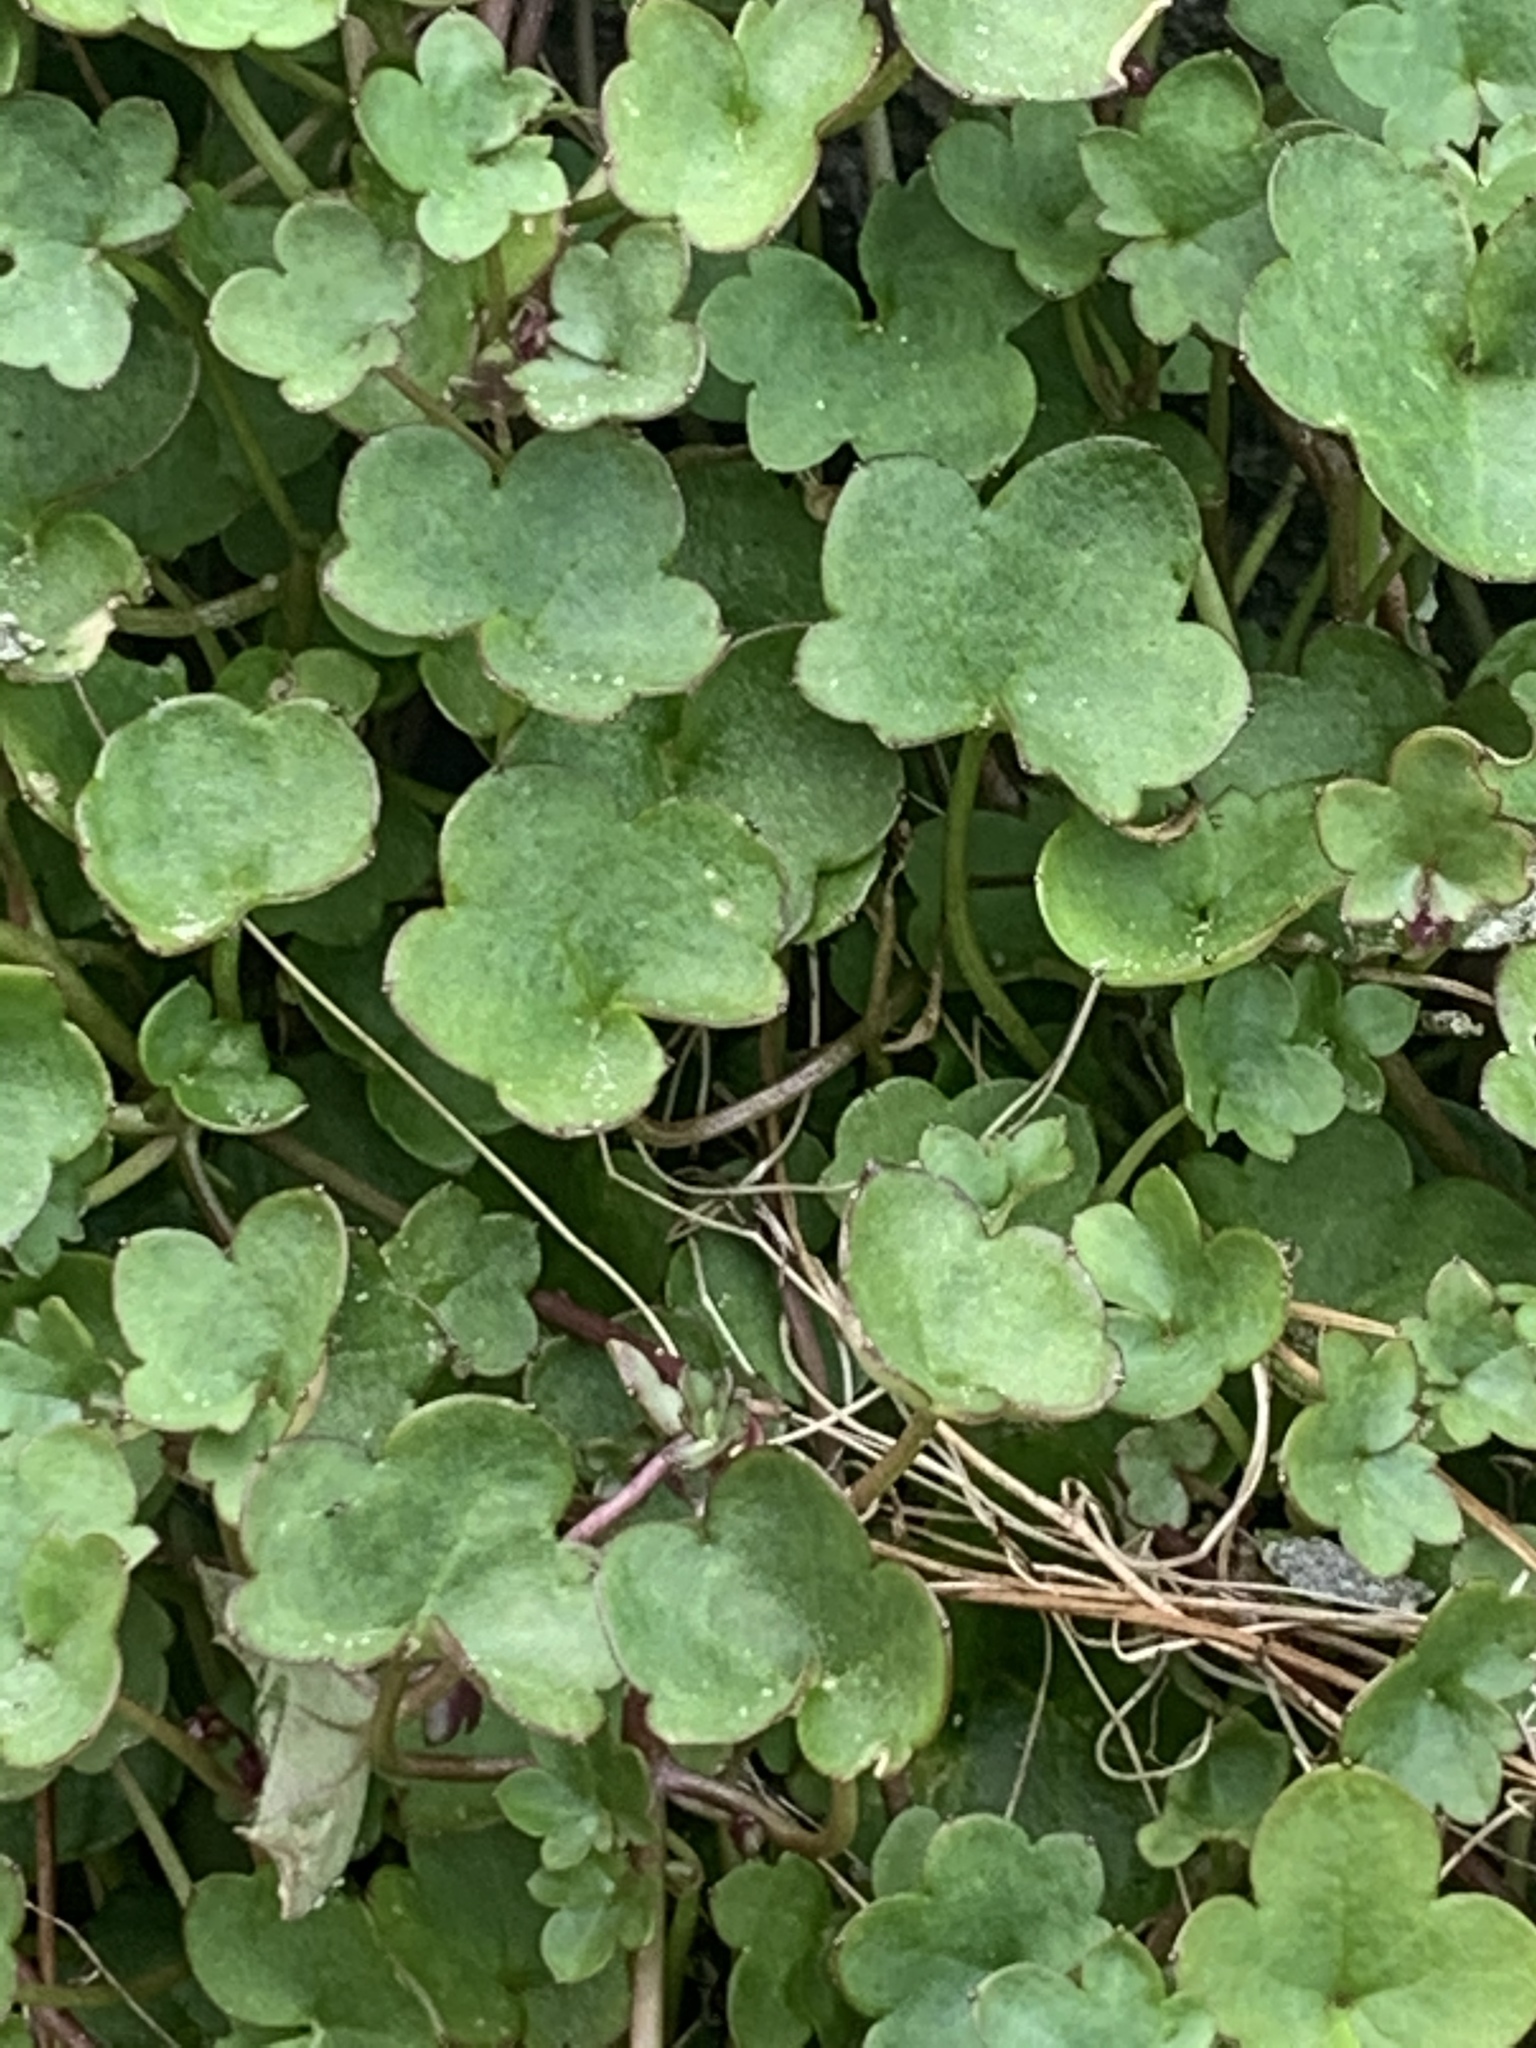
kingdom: Plantae
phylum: Tracheophyta
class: Magnoliopsida
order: Lamiales
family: Plantaginaceae
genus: Cymbalaria
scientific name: Cymbalaria muralis
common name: Ivy-leaved toadflax
